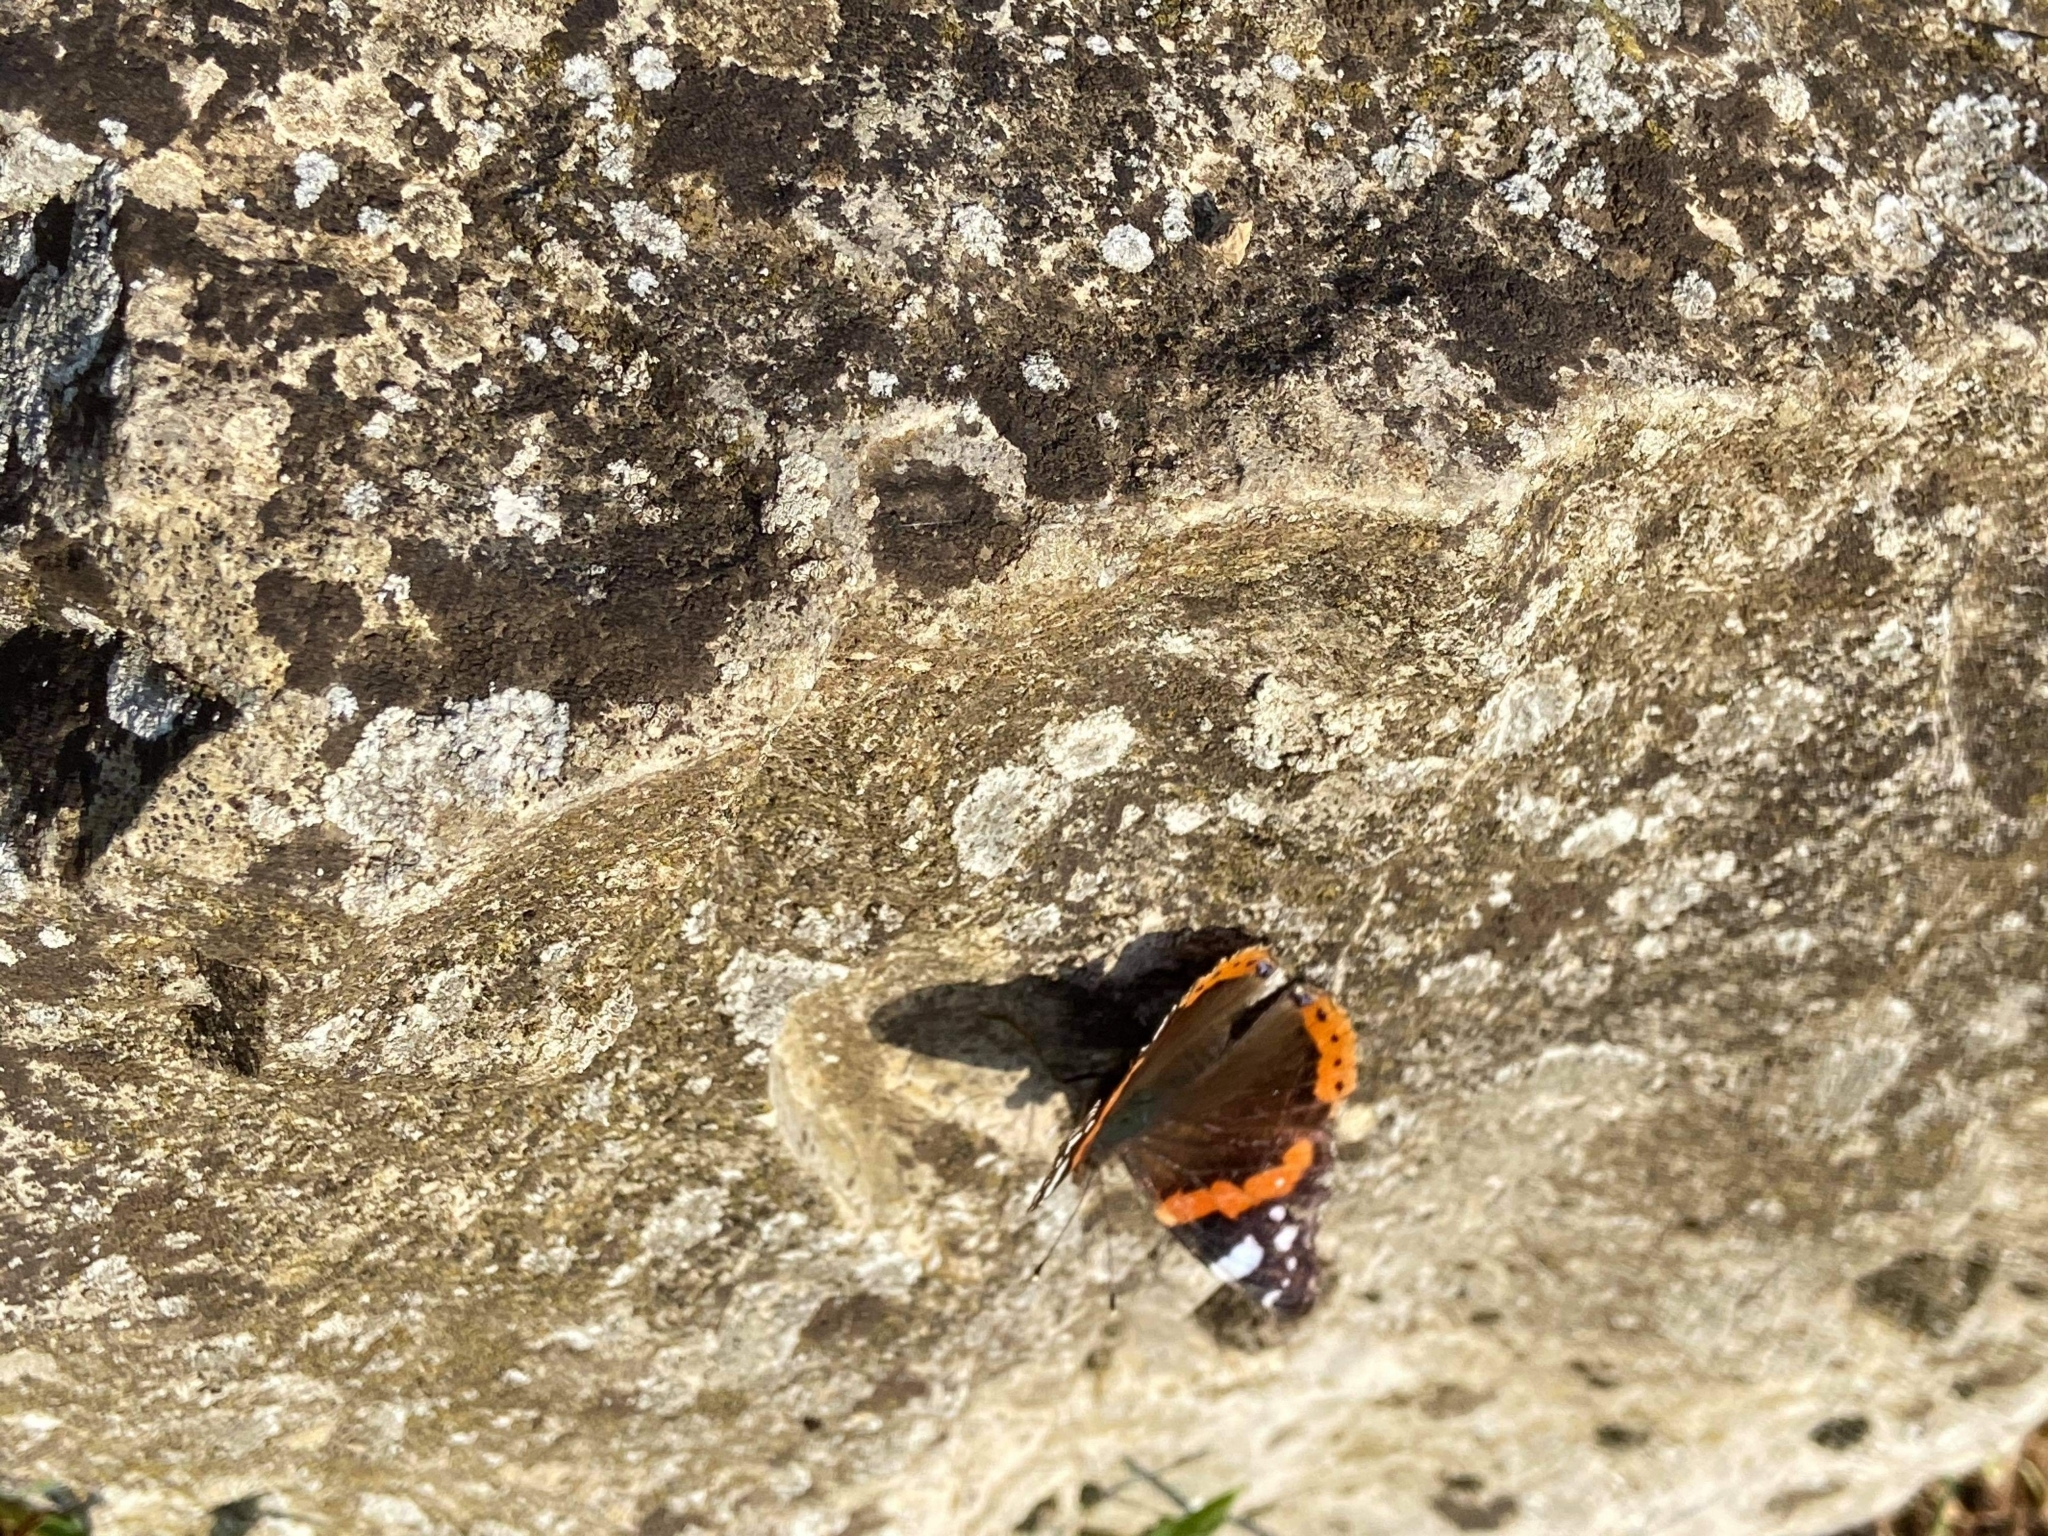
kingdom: Animalia
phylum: Arthropoda
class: Insecta
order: Lepidoptera
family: Nymphalidae
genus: Vanessa
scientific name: Vanessa atalanta
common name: Red admiral
